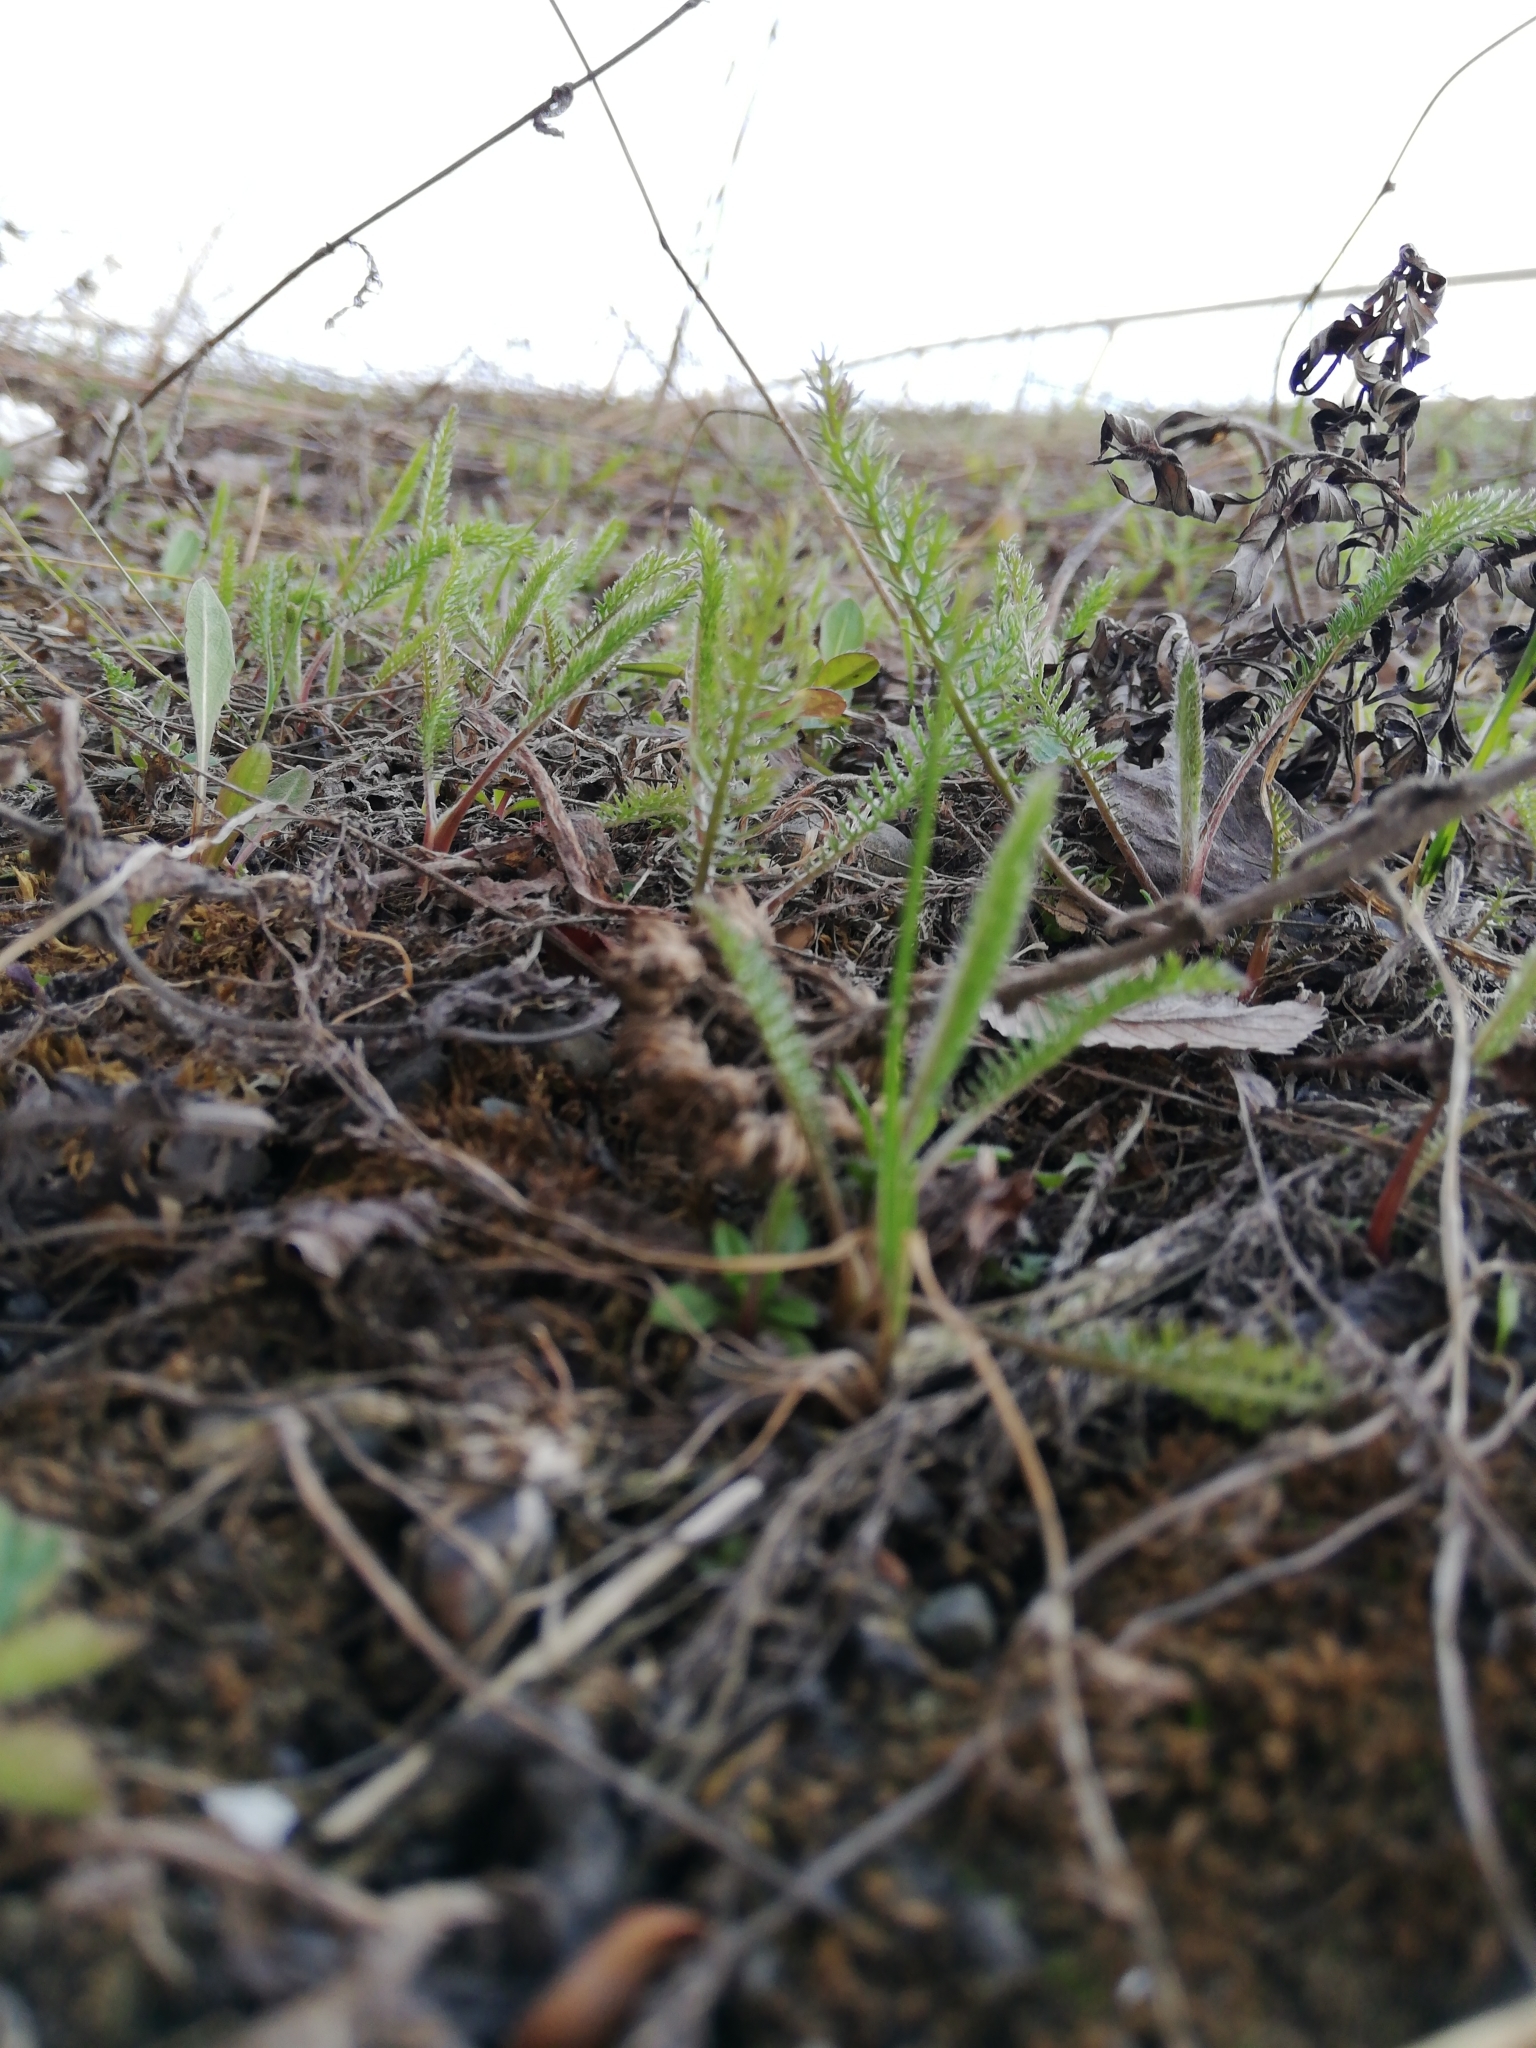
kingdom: Plantae
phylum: Tracheophyta
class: Magnoliopsida
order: Asterales
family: Asteraceae
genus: Achillea
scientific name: Achillea millefolium
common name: Yarrow
